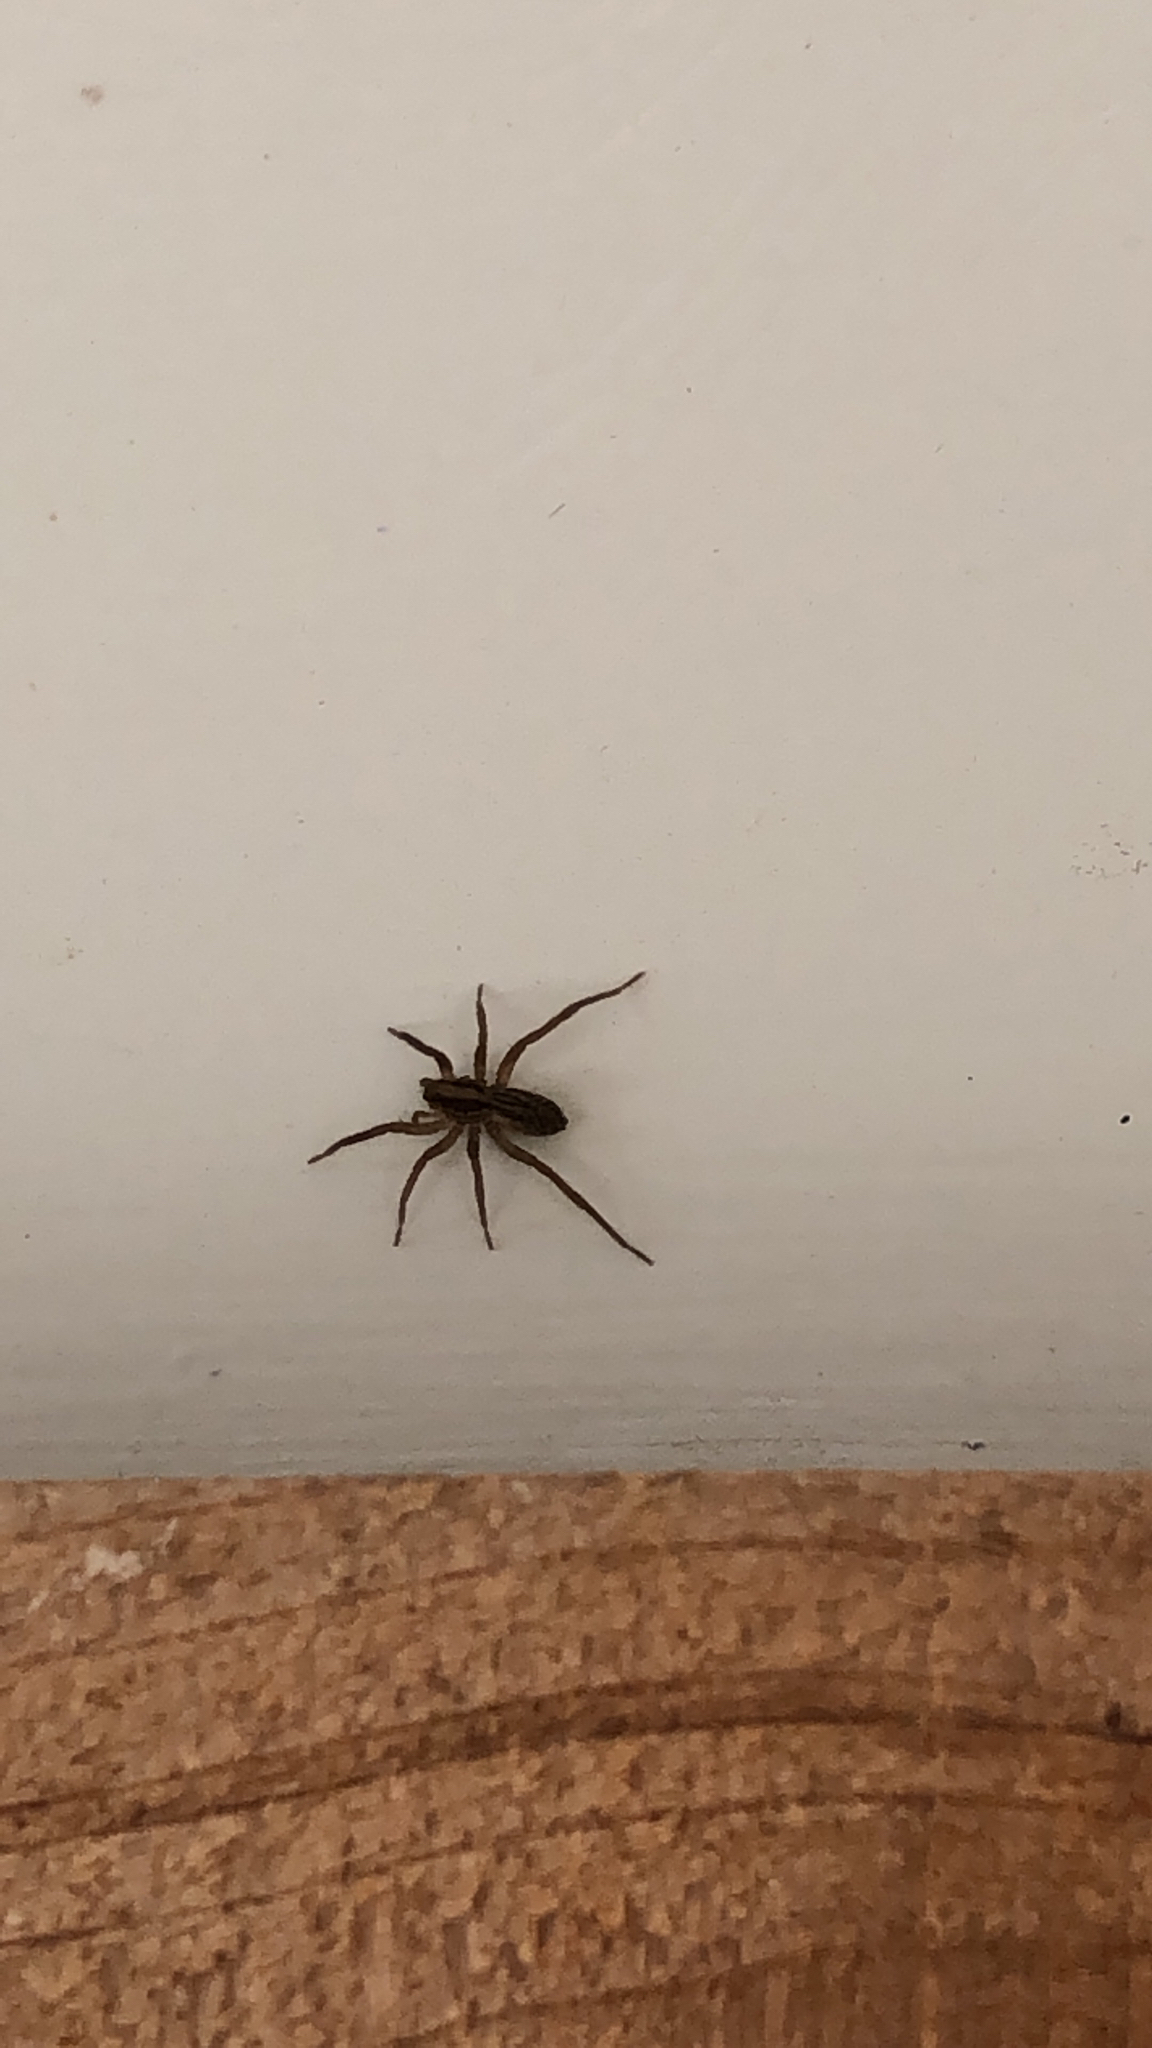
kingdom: Animalia
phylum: Arthropoda
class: Arachnida
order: Araneae
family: Lycosidae
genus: Schizocosa
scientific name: Schizocosa mccooki
